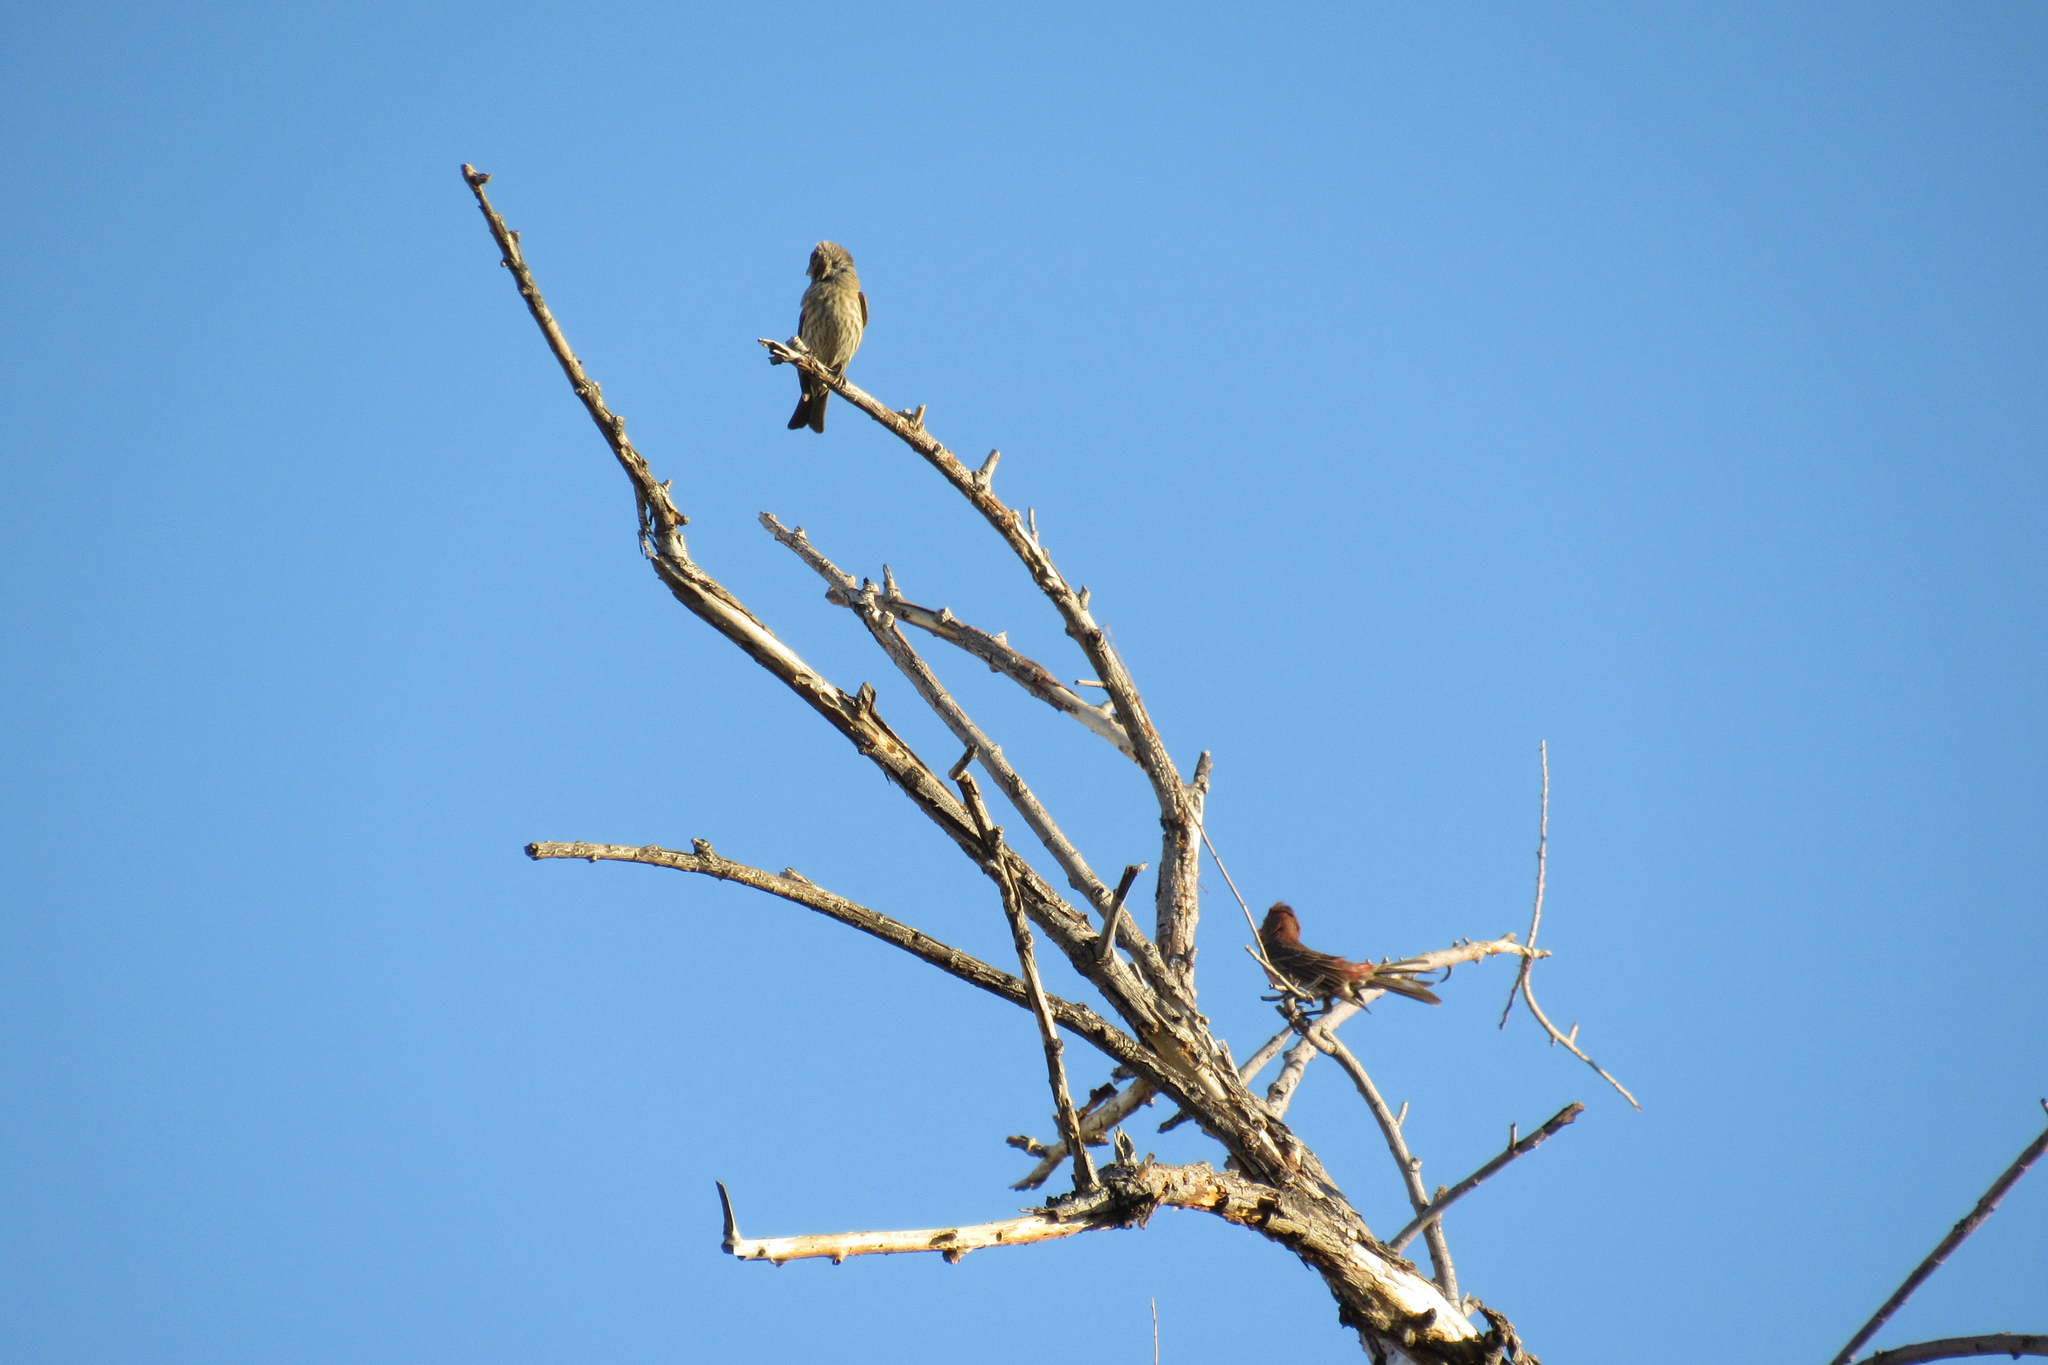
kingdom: Animalia
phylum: Chordata
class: Aves
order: Passeriformes
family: Fringillidae
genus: Haemorhous
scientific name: Haemorhous mexicanus
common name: House finch
